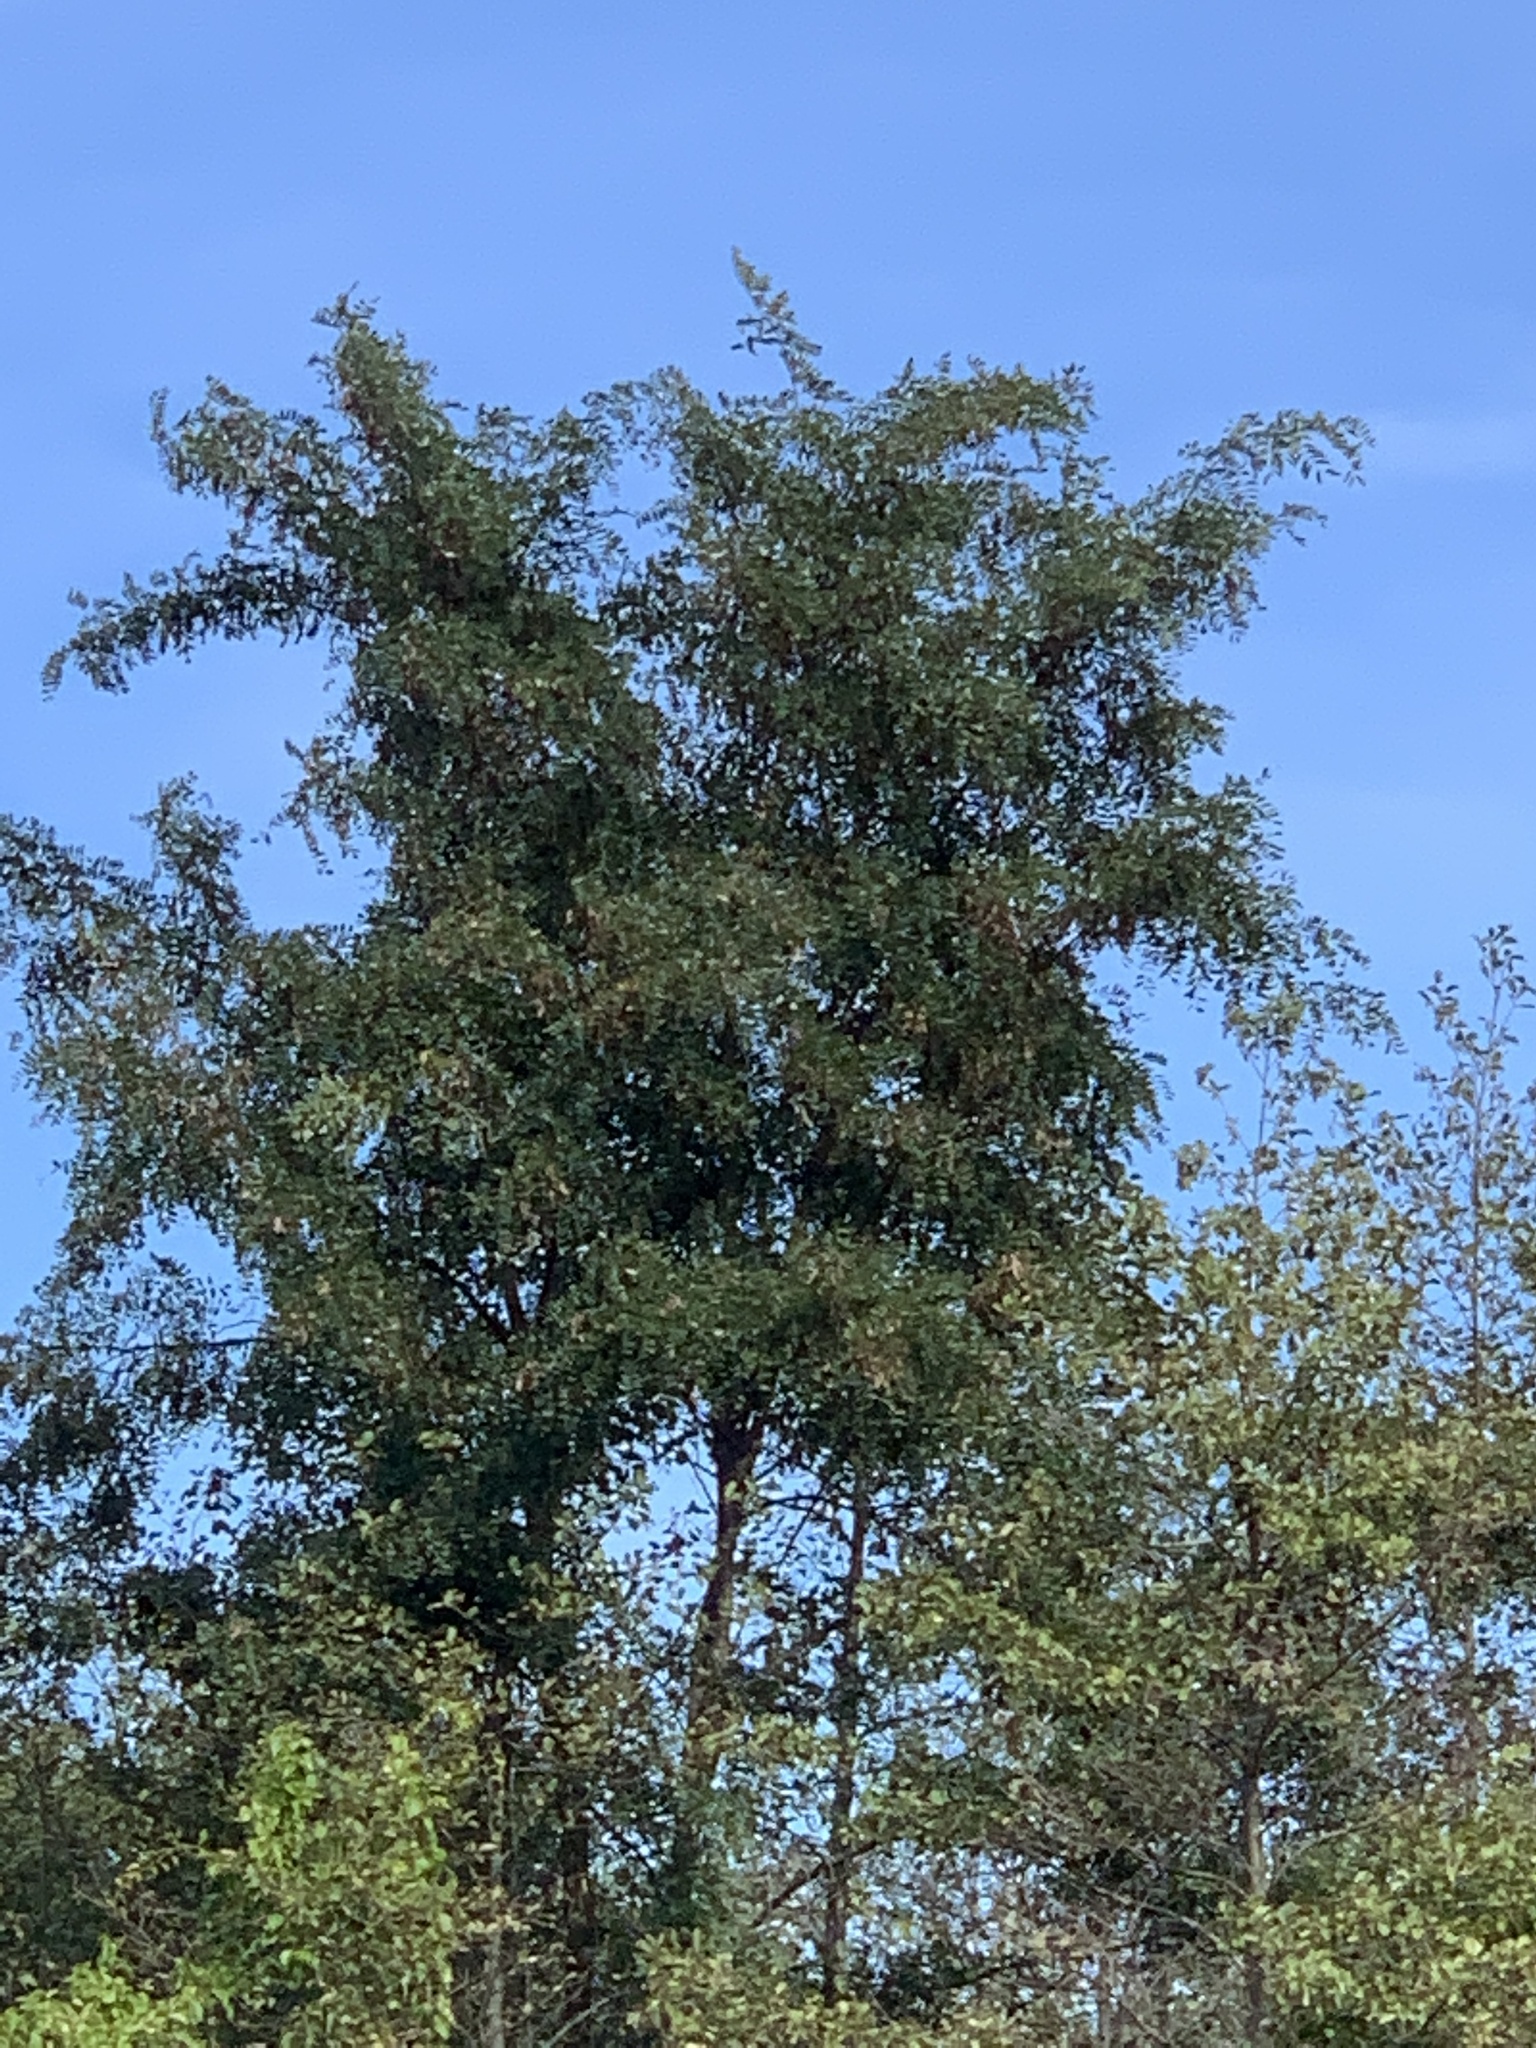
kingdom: Plantae
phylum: Tracheophyta
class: Magnoliopsida
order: Fabales
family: Fabaceae
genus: Robinia
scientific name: Robinia pseudoacacia
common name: Black locust
